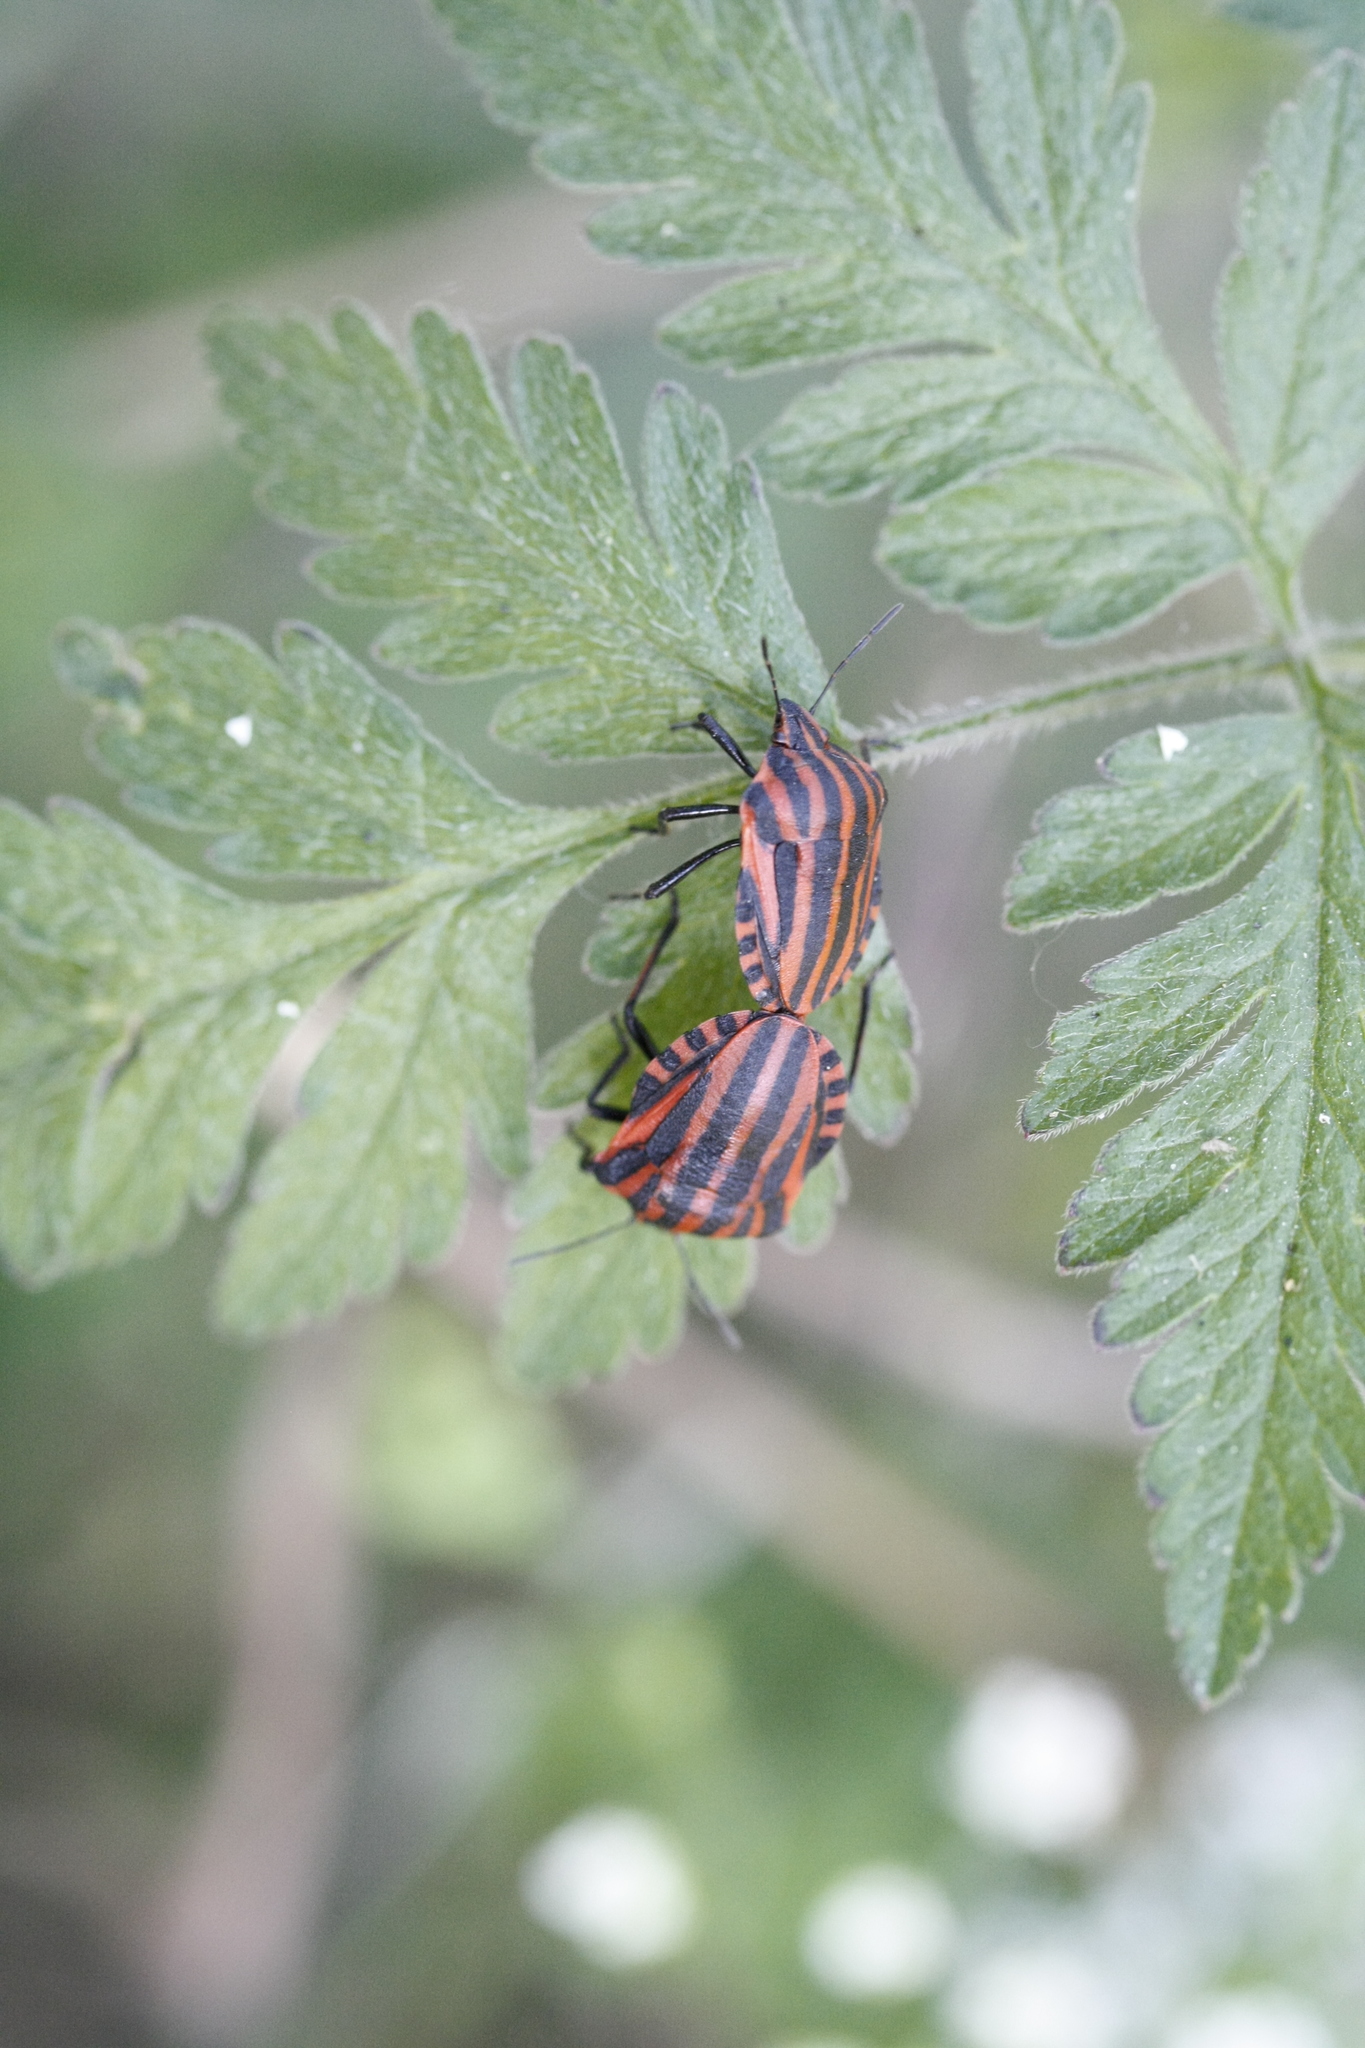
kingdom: Animalia
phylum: Arthropoda
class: Insecta
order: Hemiptera
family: Pentatomidae
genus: Graphosoma
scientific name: Graphosoma italicum
